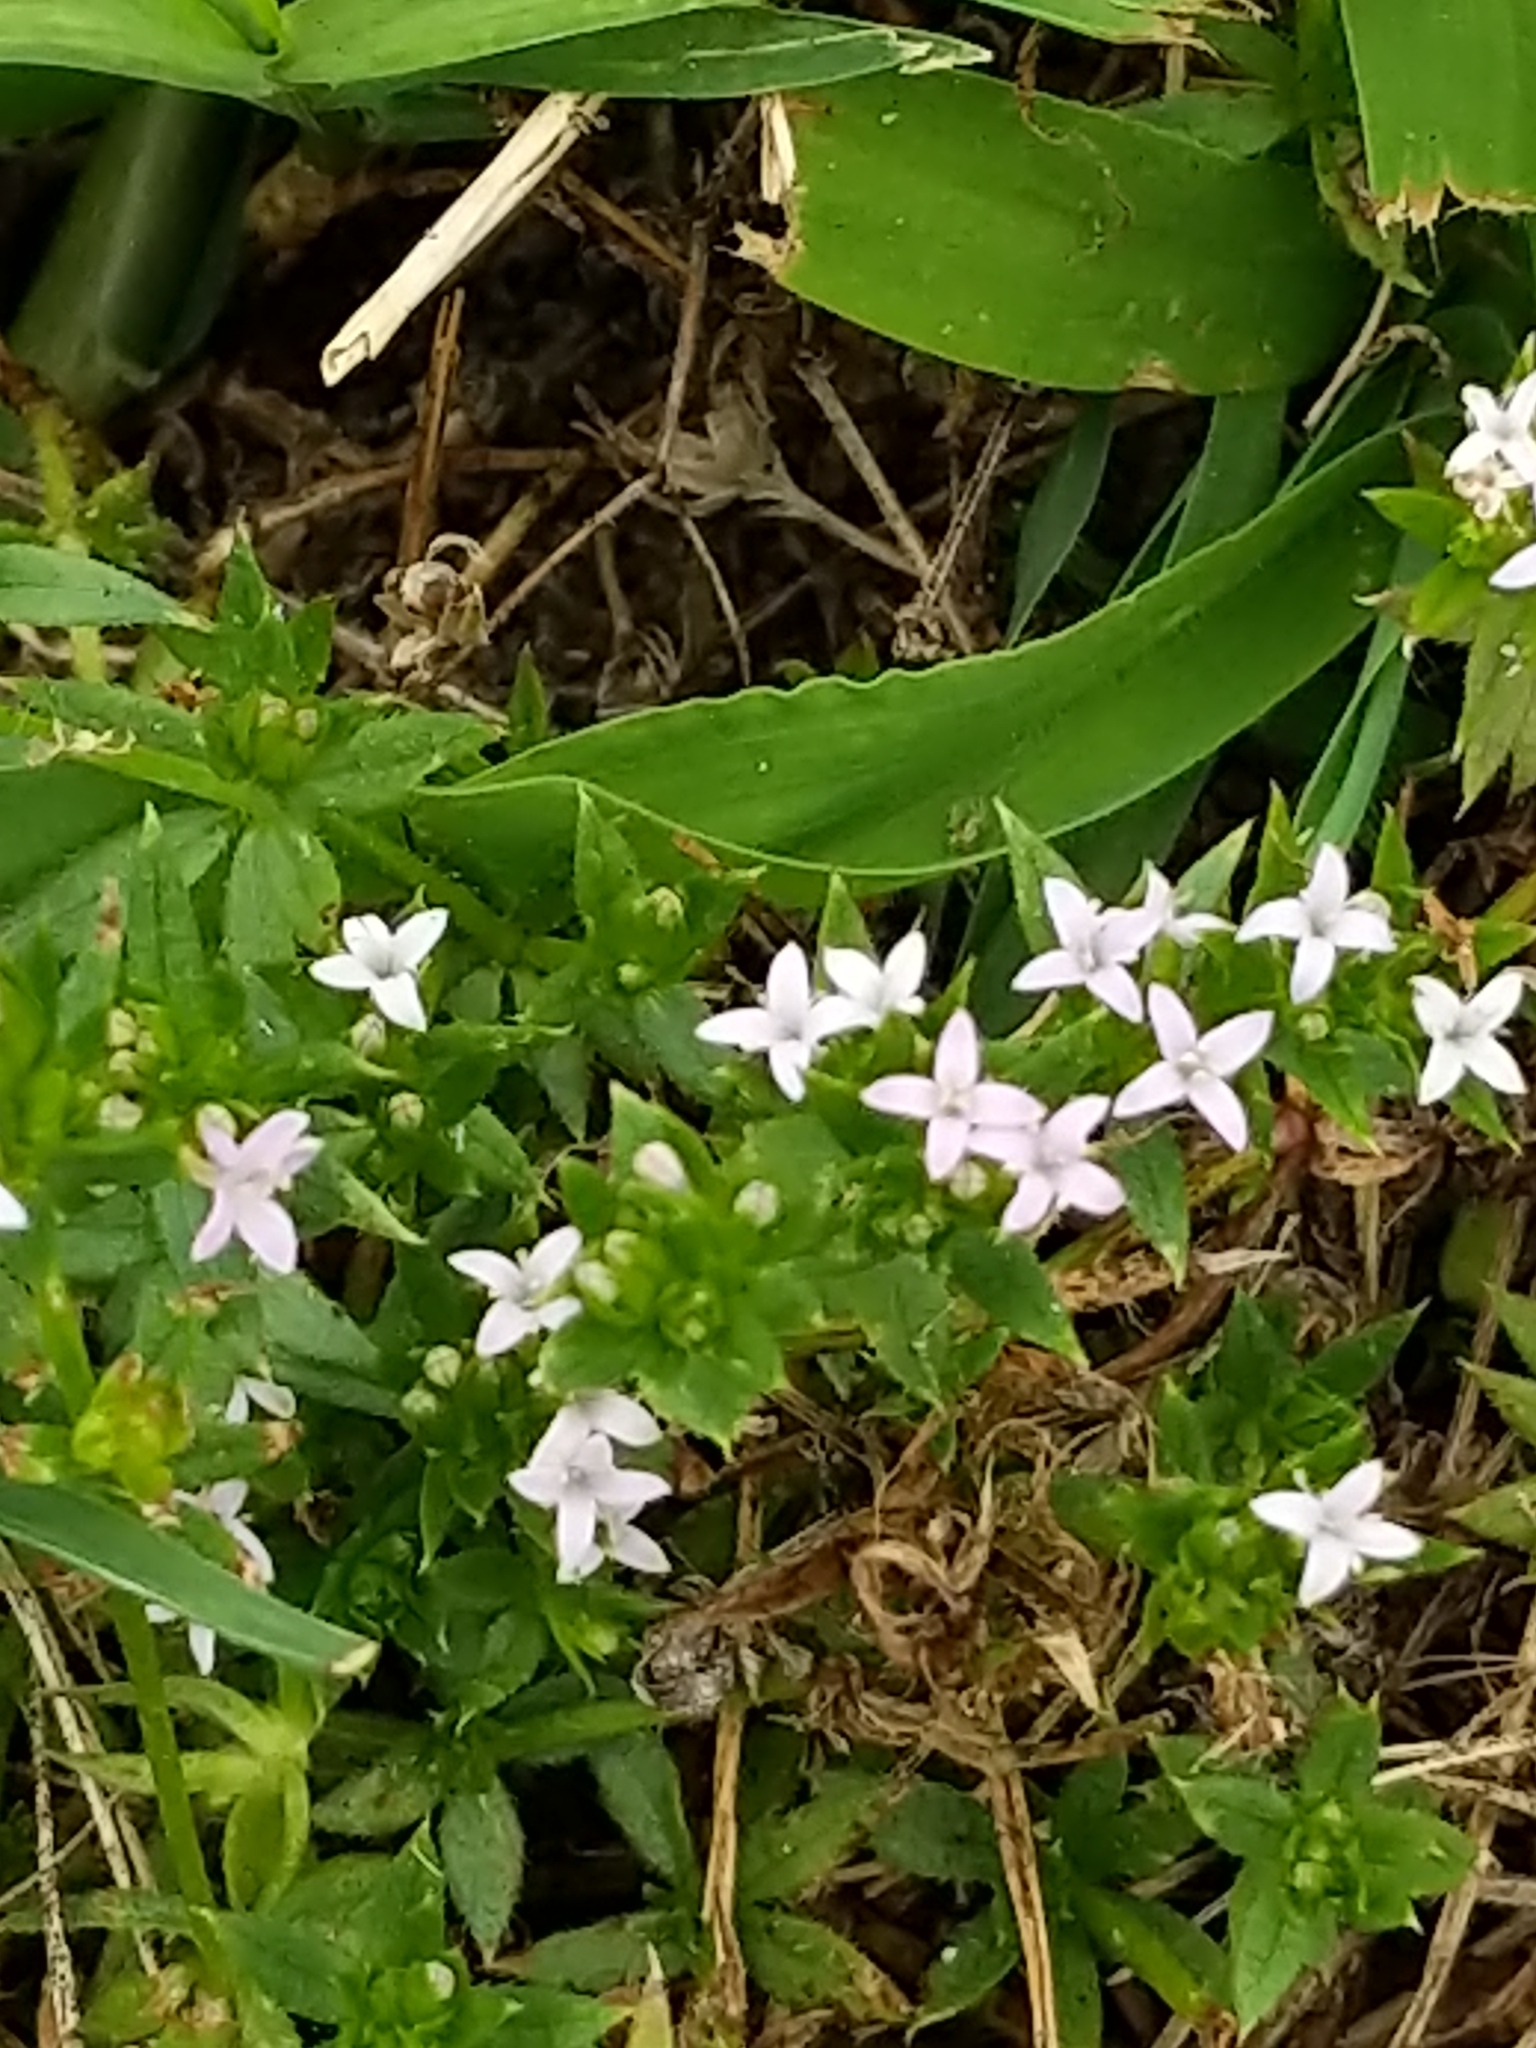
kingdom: Plantae
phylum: Tracheophyta
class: Magnoliopsida
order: Gentianales
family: Rubiaceae
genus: Sherardia
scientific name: Sherardia arvensis
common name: Field madder
